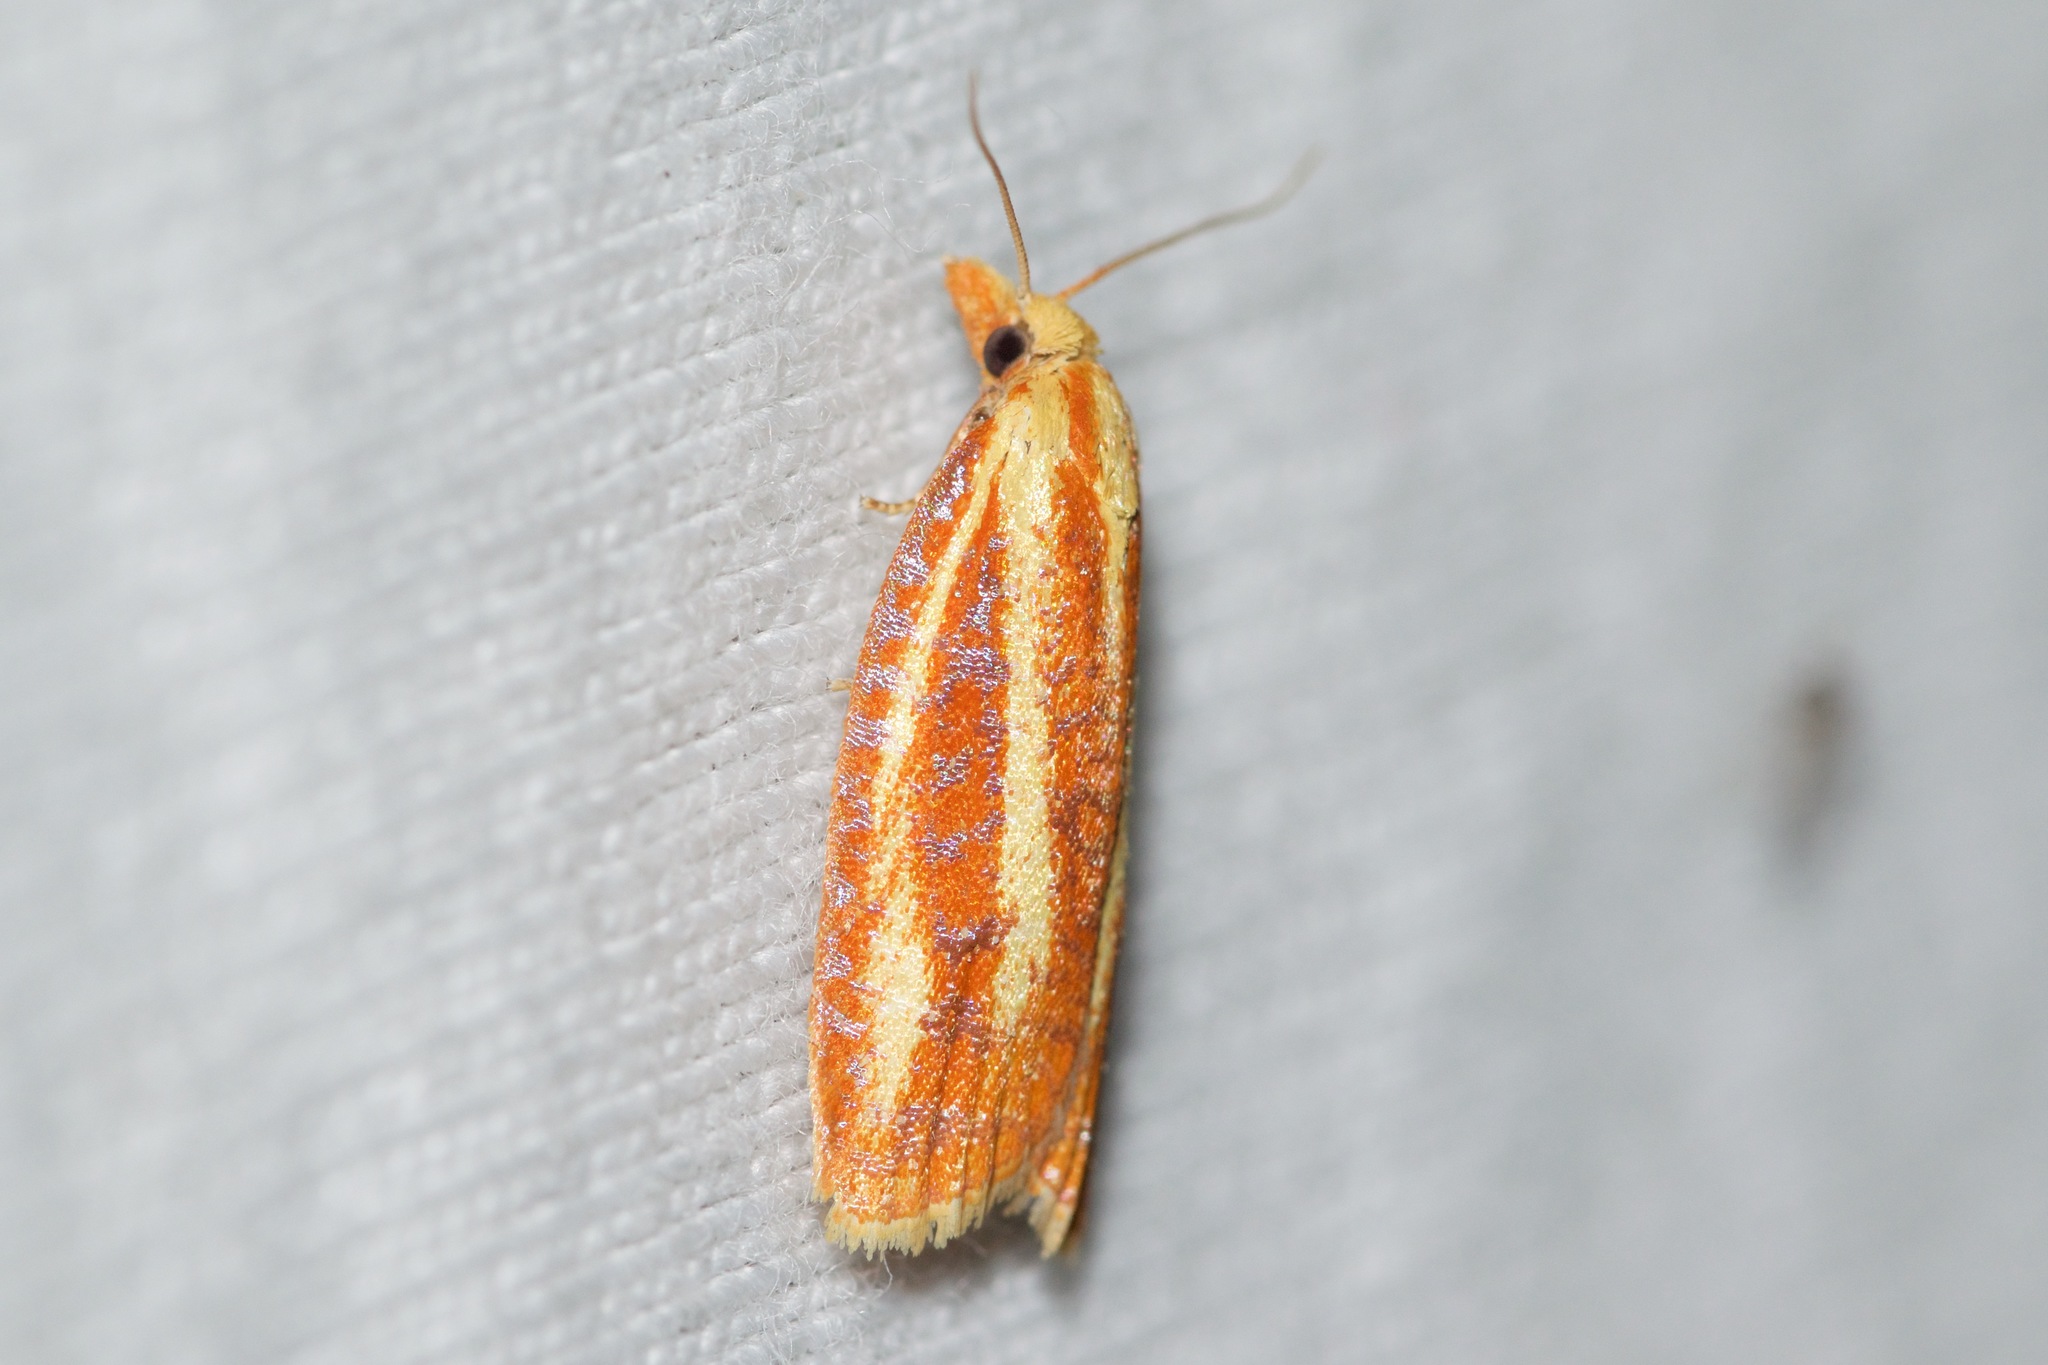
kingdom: Animalia
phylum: Arthropoda
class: Insecta
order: Lepidoptera
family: Tortricidae
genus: Sparganothis
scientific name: Sparganothis tristriata
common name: Three-streaked sparganothis moth
